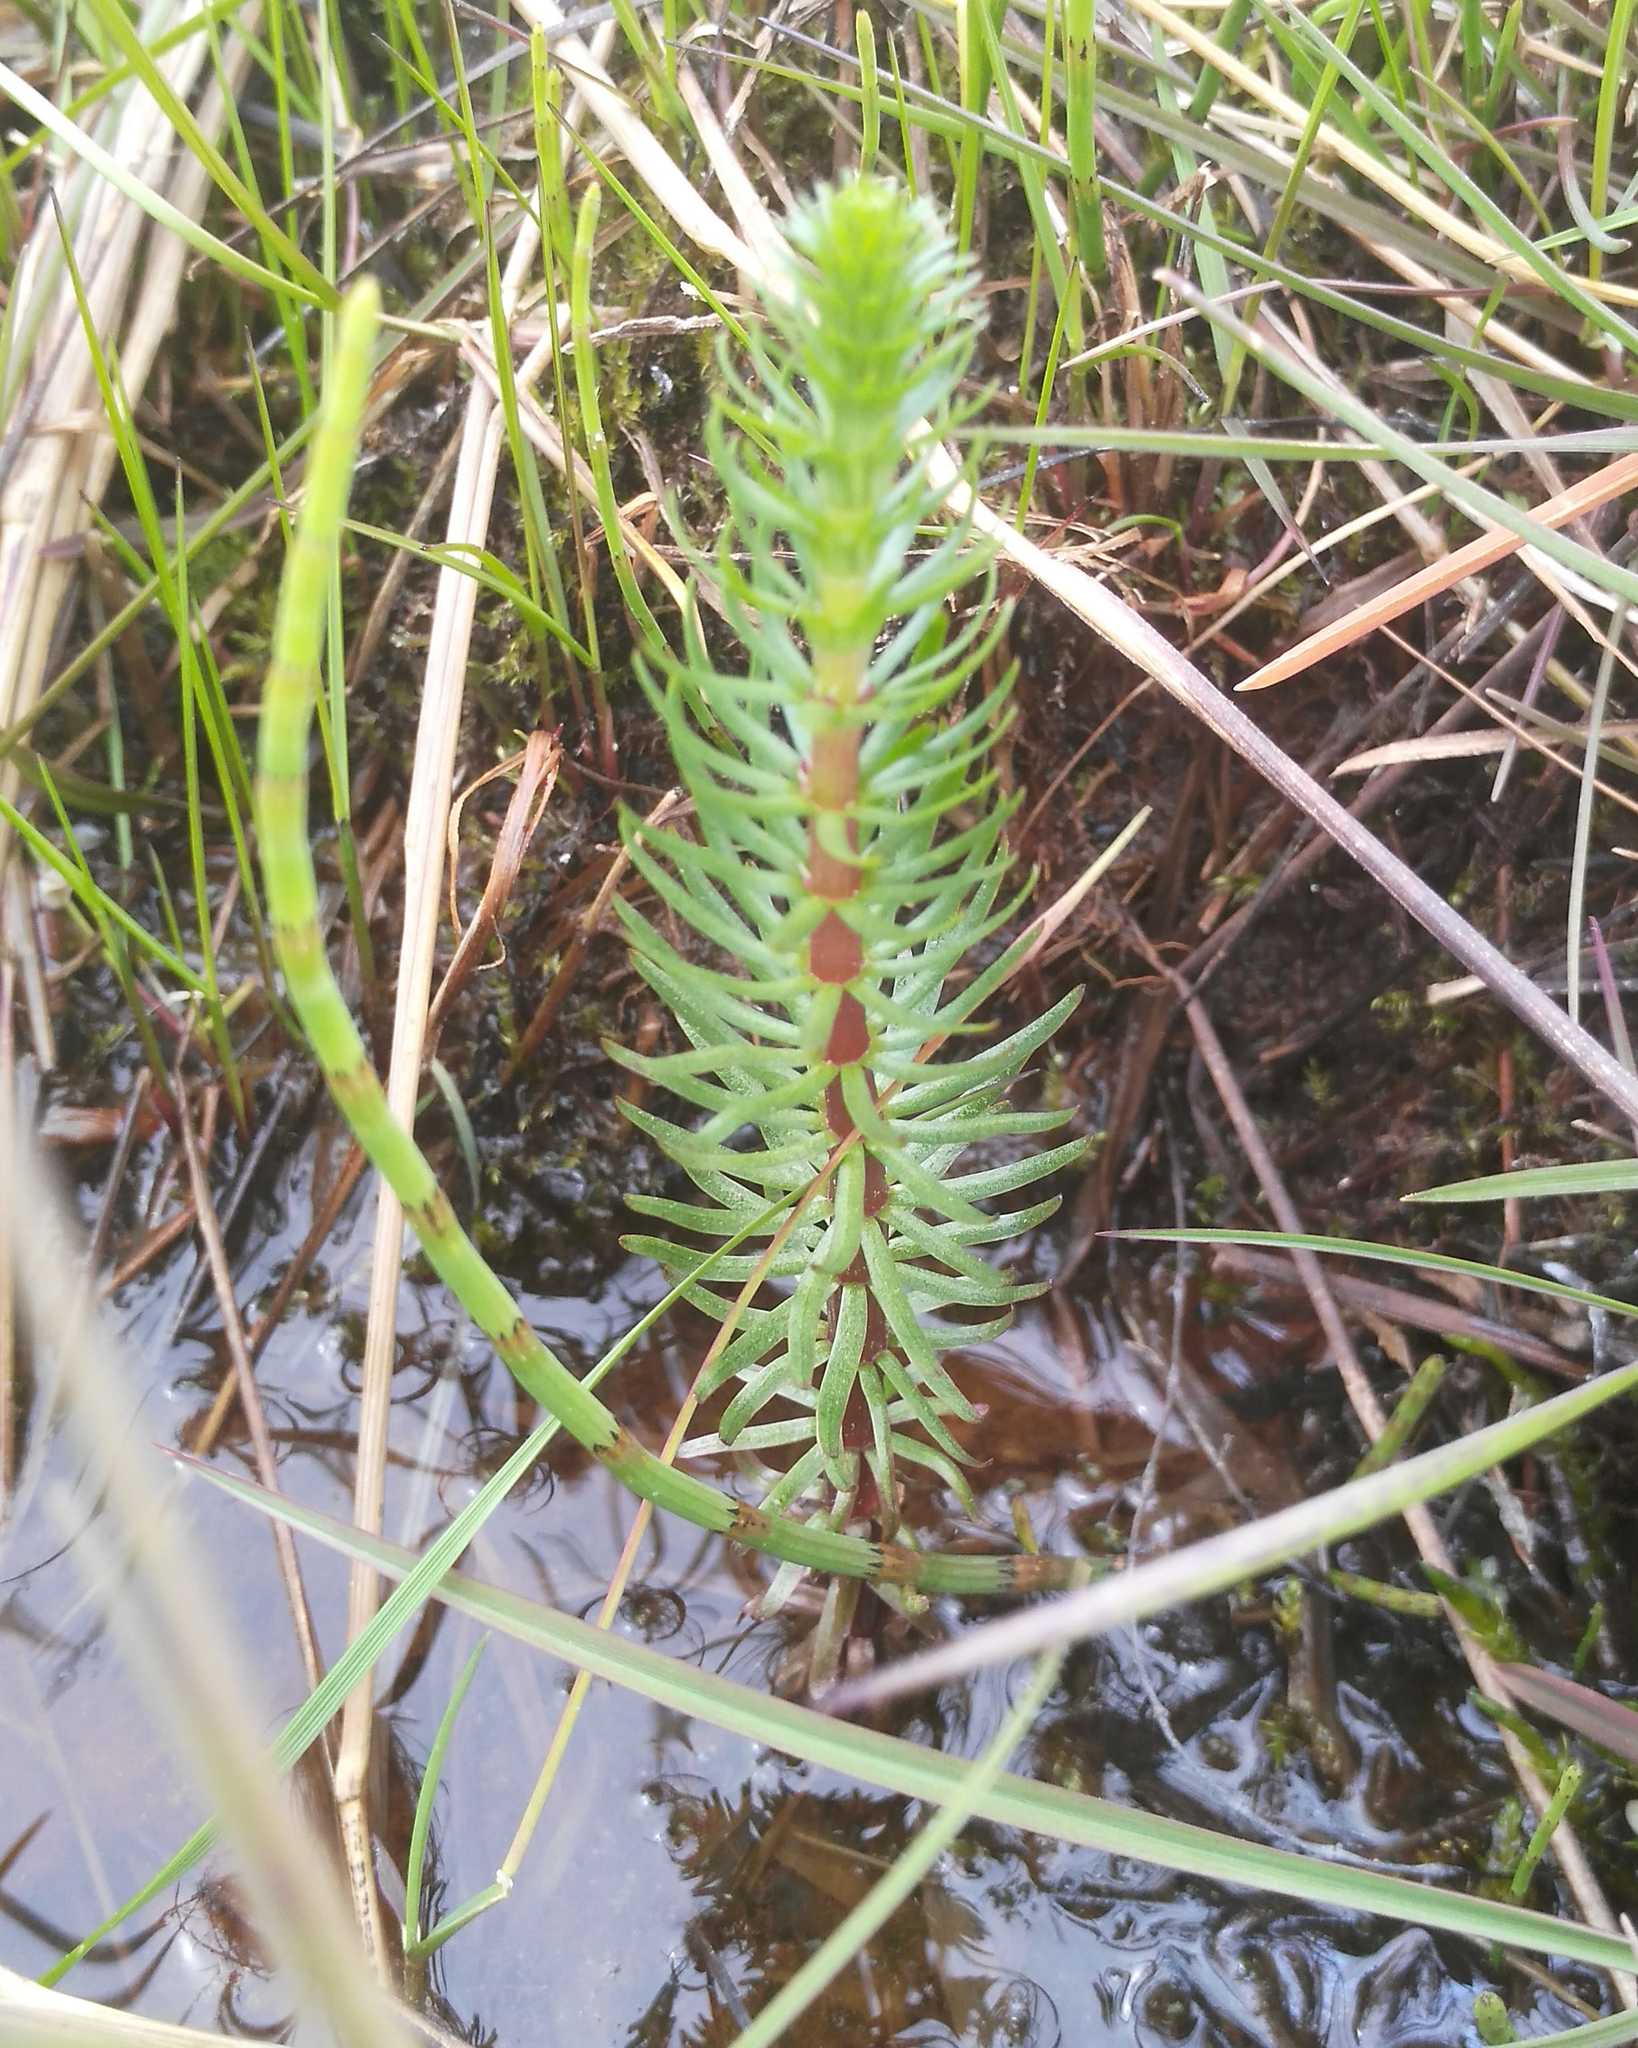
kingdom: Plantae
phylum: Tracheophyta
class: Magnoliopsida
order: Lamiales
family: Plantaginaceae
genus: Hippuris
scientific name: Hippuris vulgaris
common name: Mare's-tail
